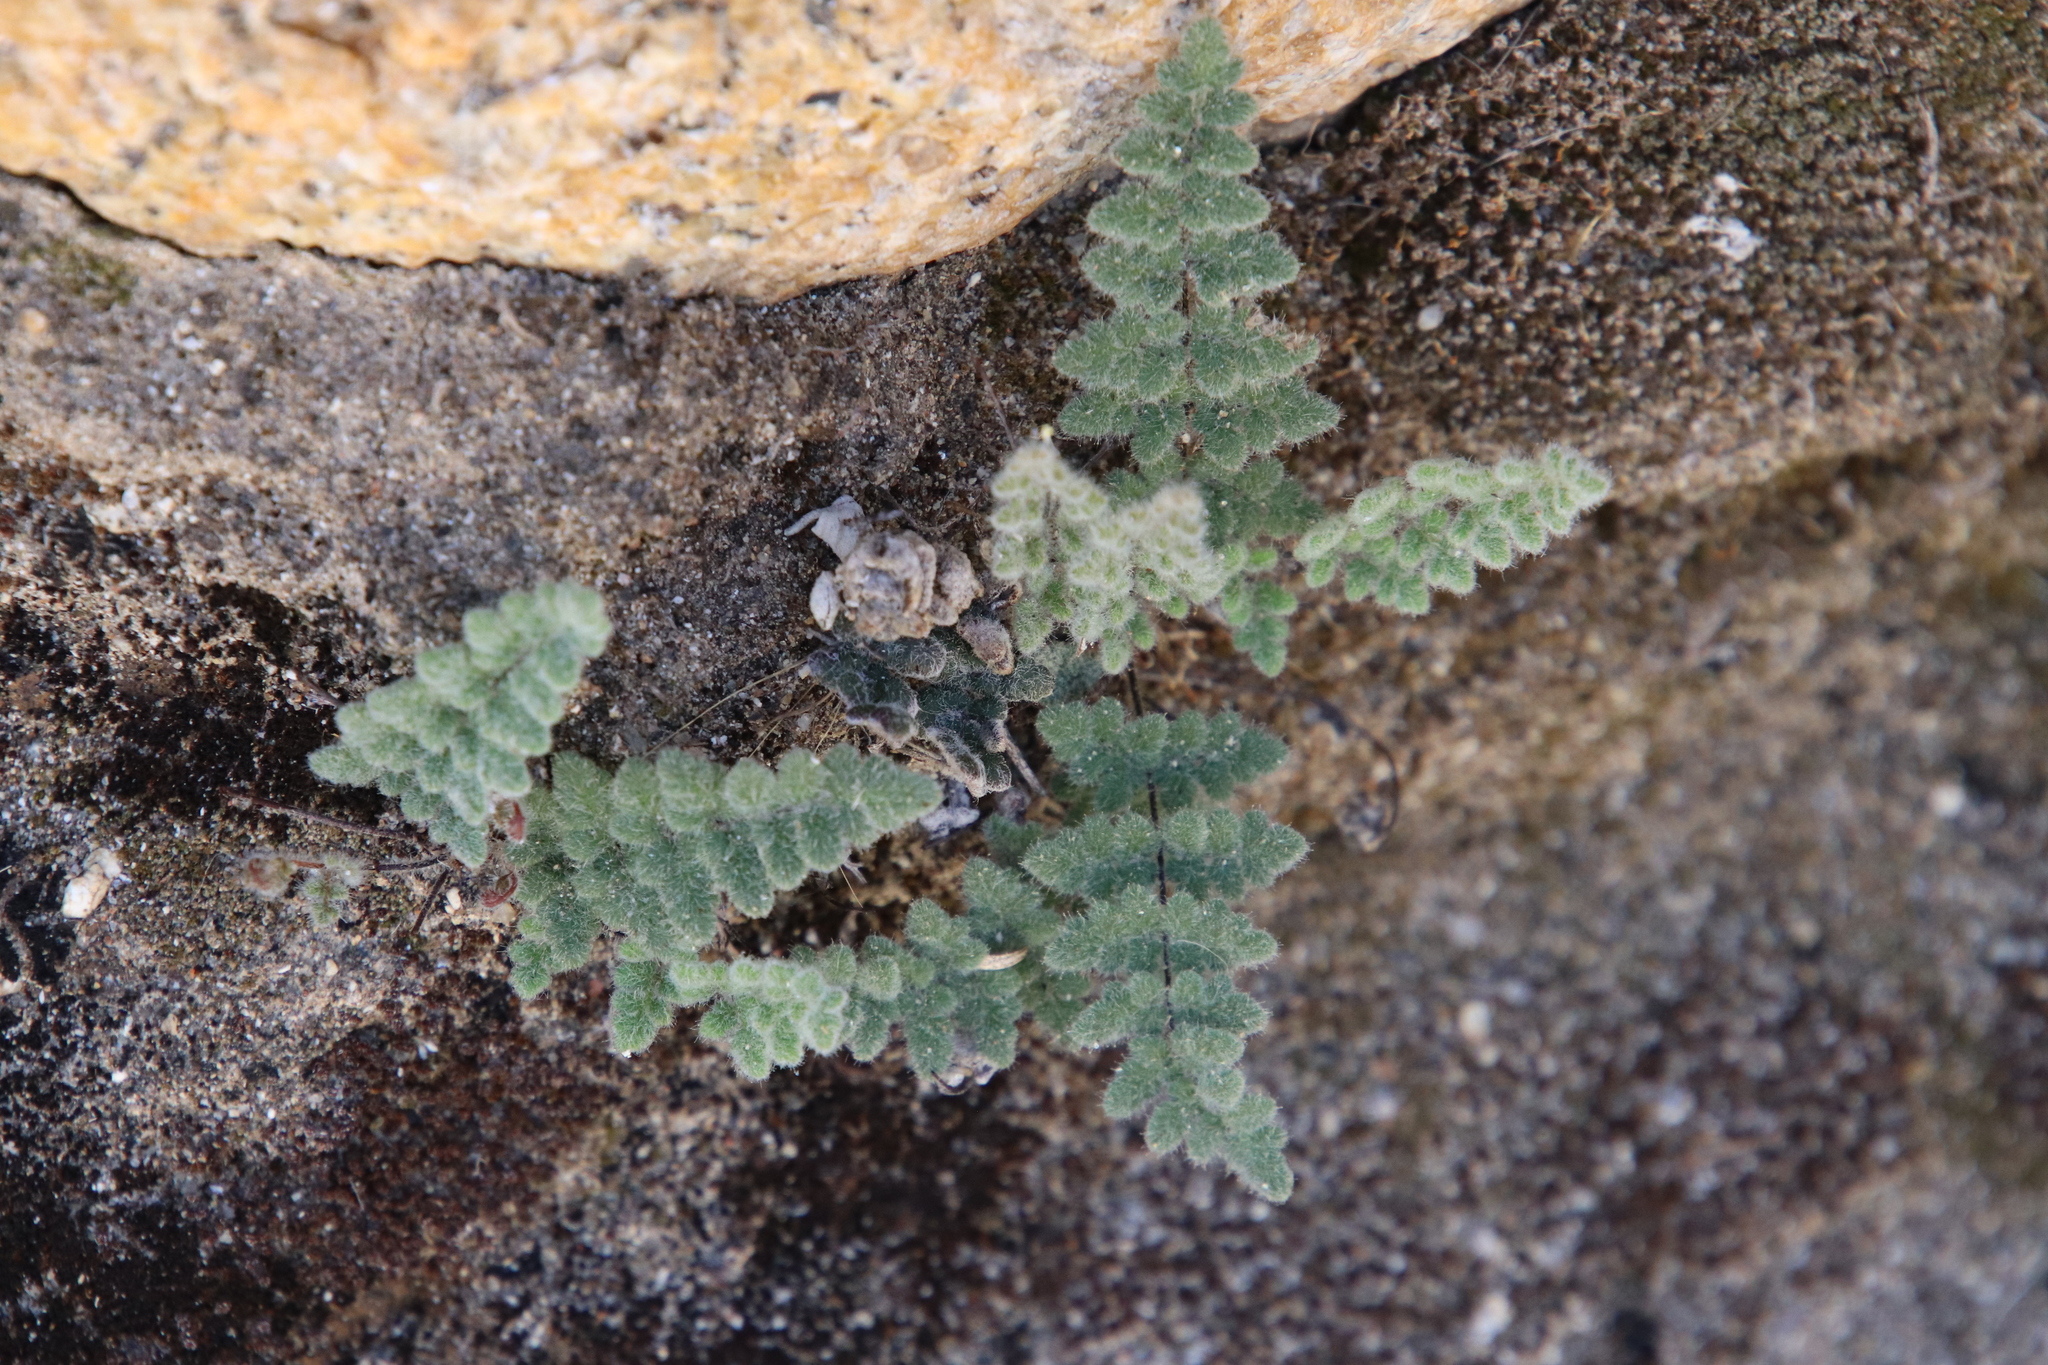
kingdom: Plantae
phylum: Tracheophyta
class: Polypodiopsida
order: Polypodiales
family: Pteridaceae
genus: Myriopteris
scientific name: Myriopteris parryi
